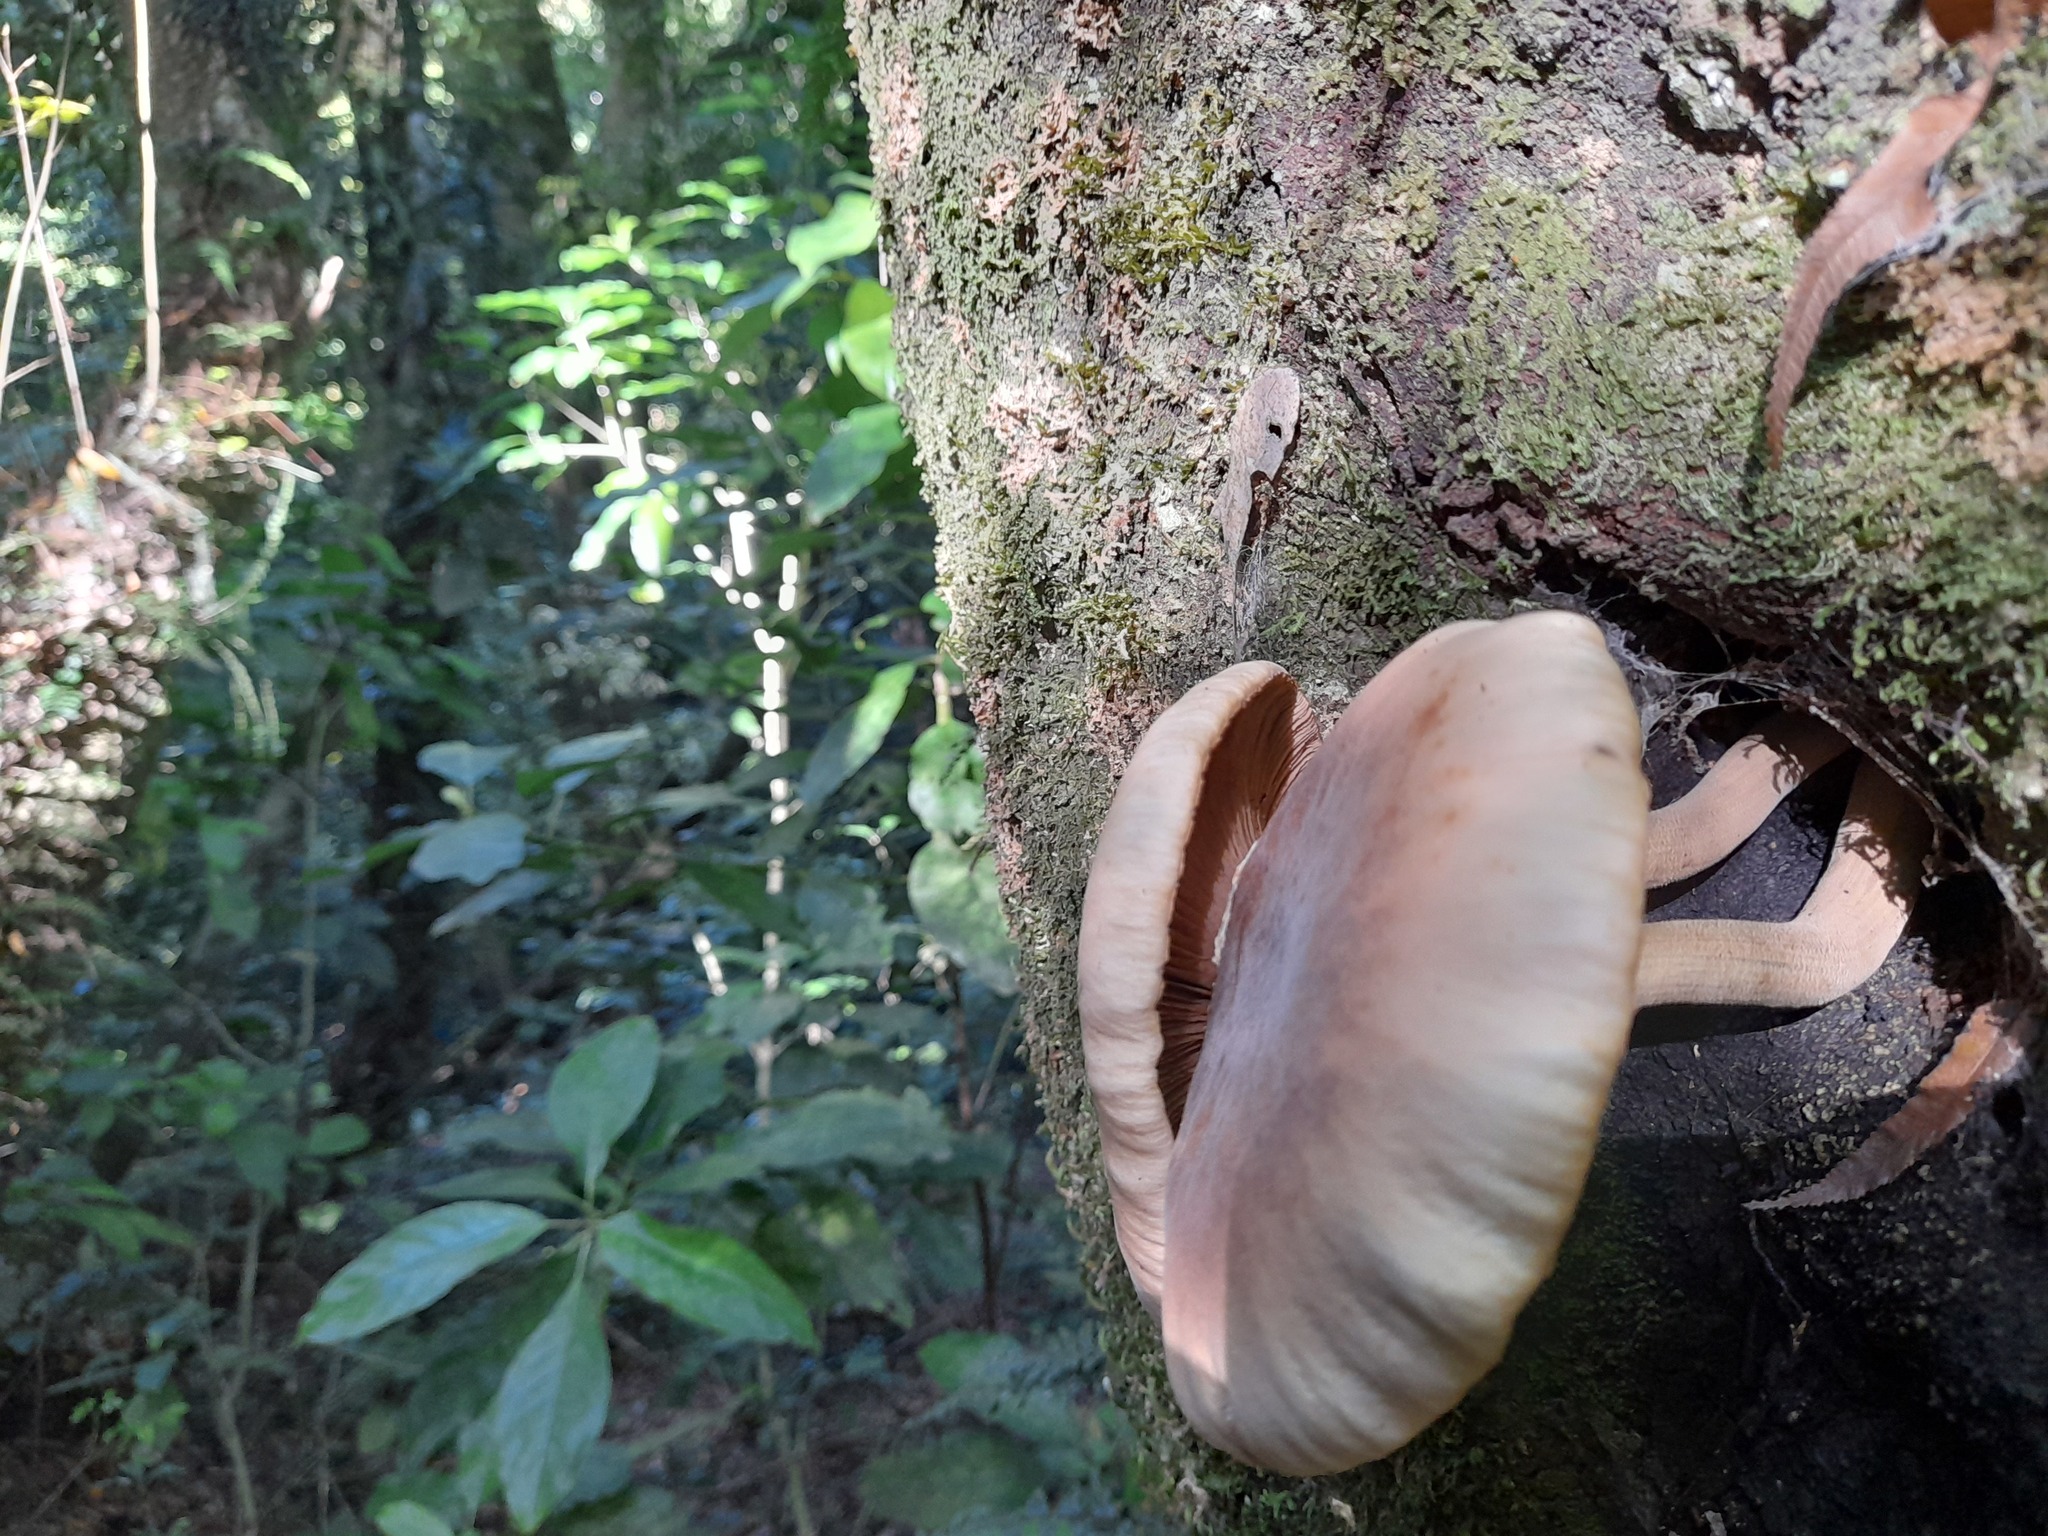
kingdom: Fungi
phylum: Basidiomycota
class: Agaricomycetes
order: Agaricales
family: Tubariaceae
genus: Cyclocybe
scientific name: Cyclocybe parasitica
